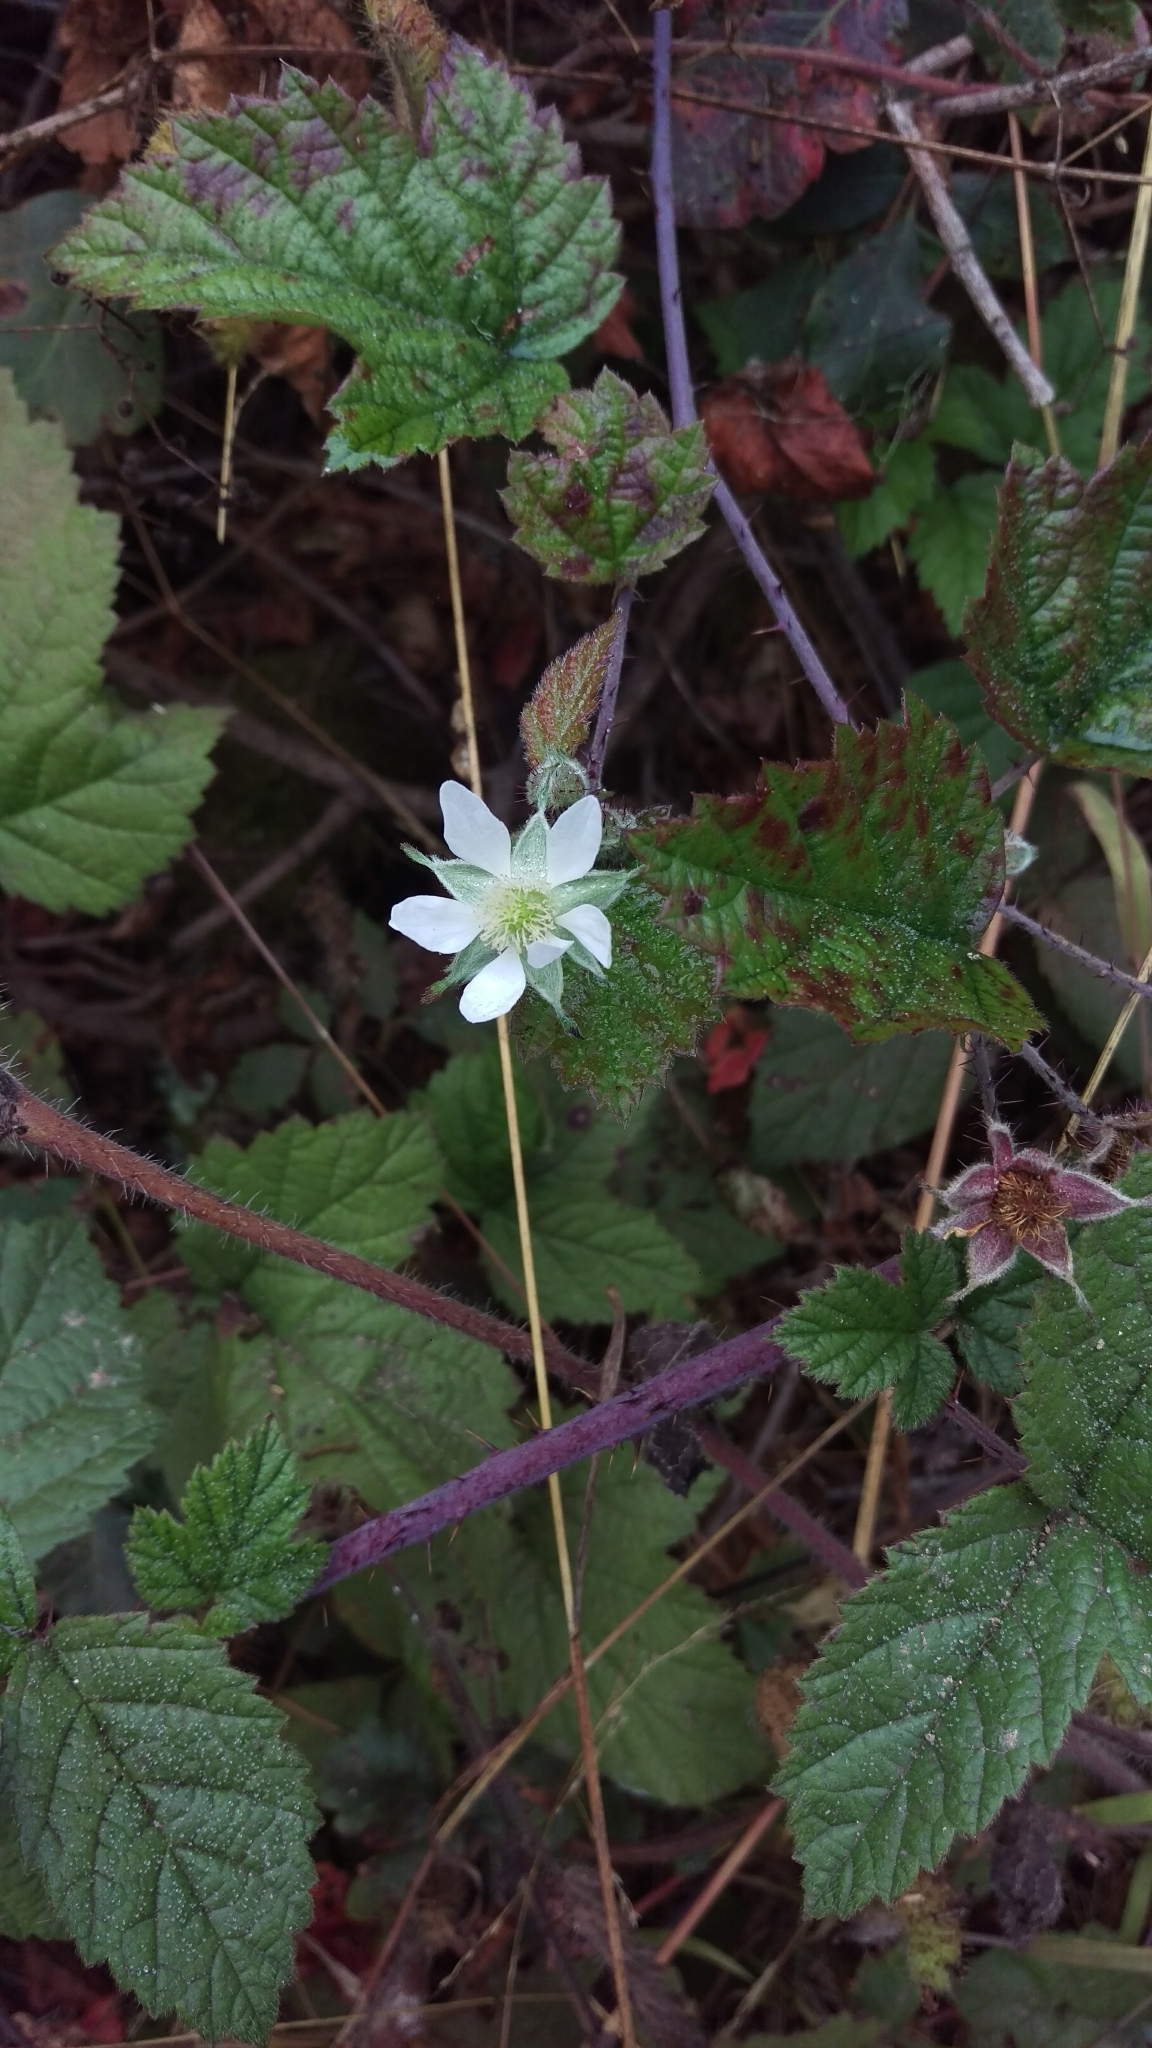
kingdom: Plantae
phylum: Tracheophyta
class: Magnoliopsida
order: Rosales
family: Rosaceae
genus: Rubus
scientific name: Rubus ursinus
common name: Pacific blackberry
